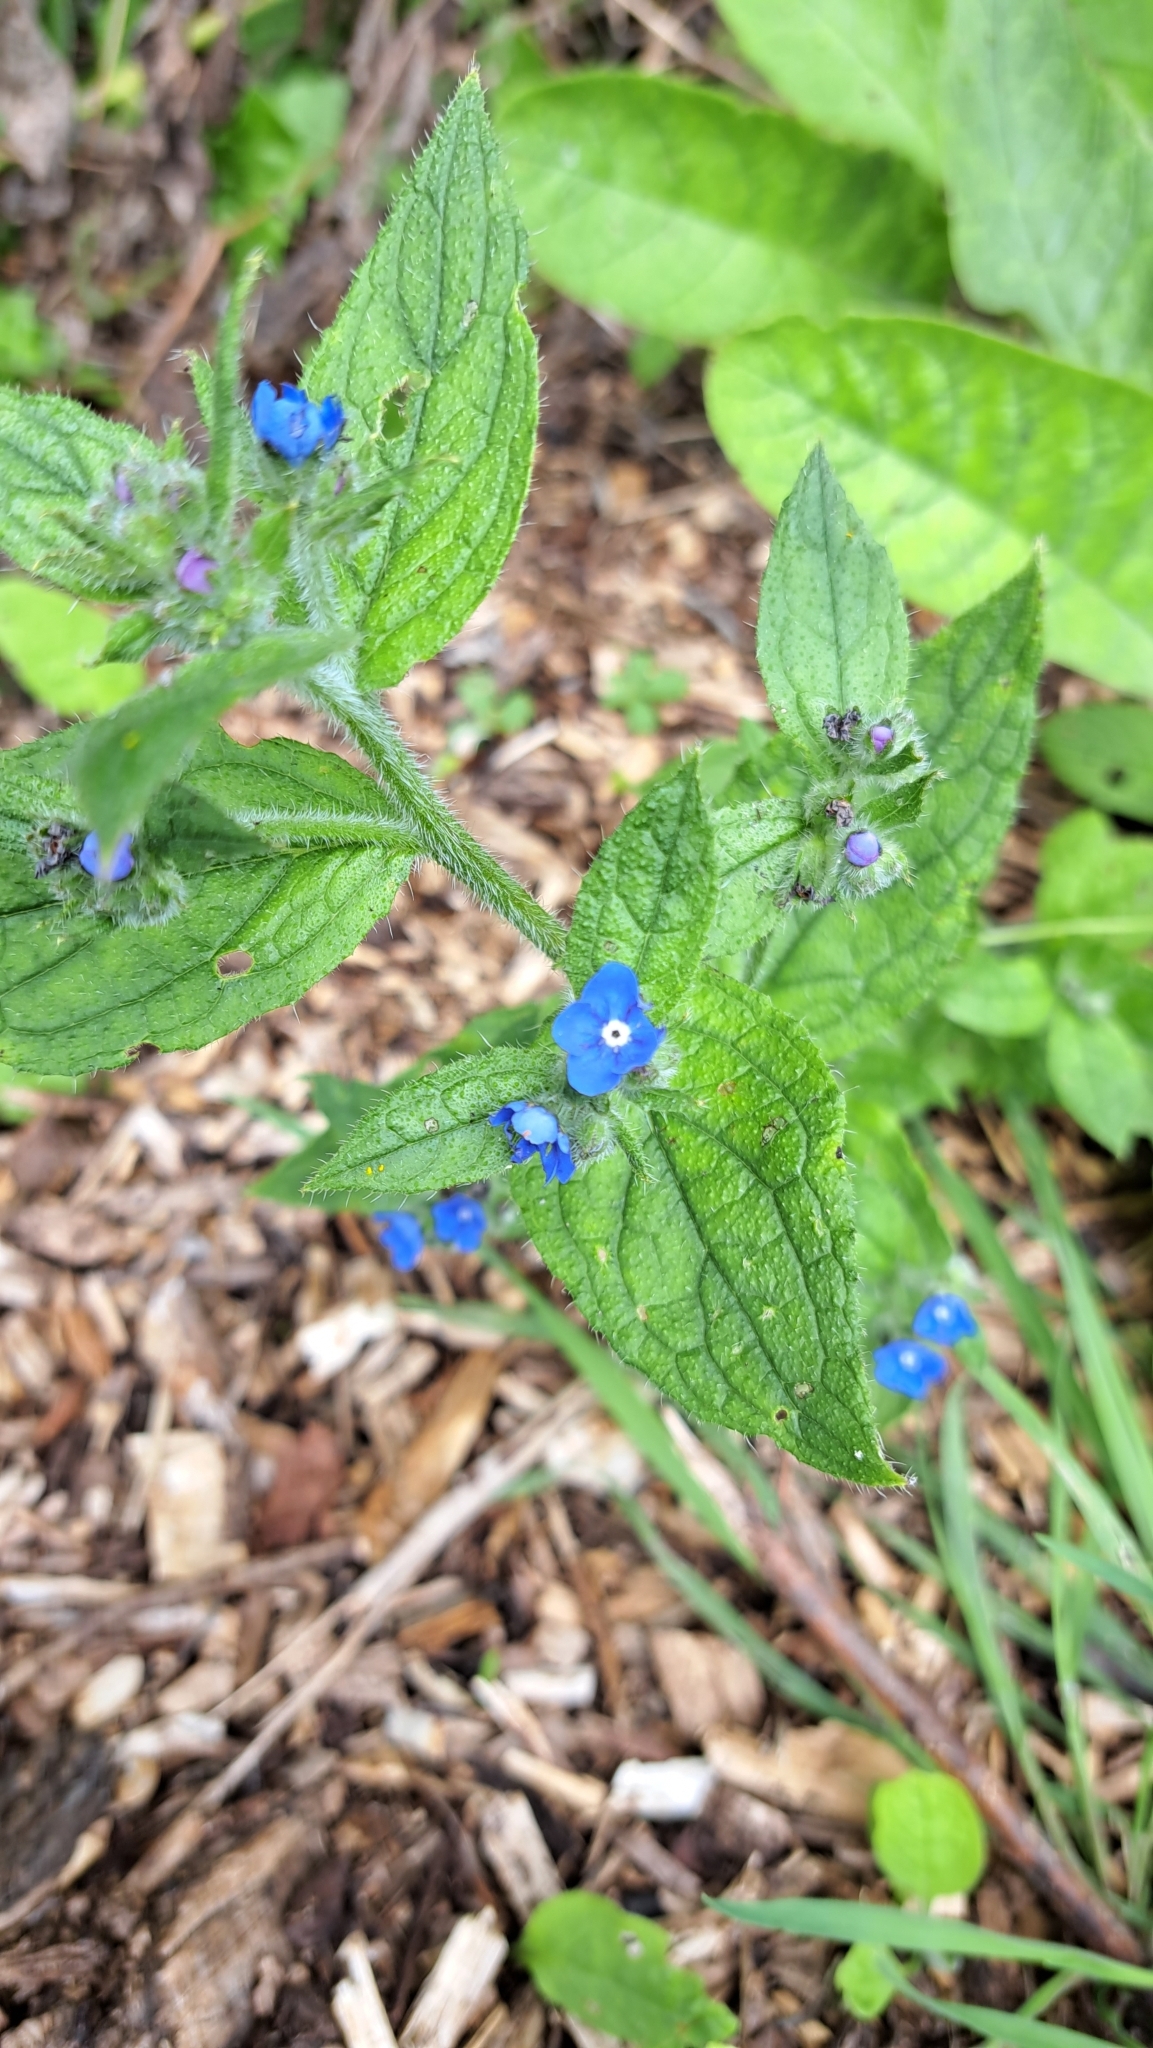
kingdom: Plantae
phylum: Tracheophyta
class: Magnoliopsida
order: Boraginales
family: Boraginaceae
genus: Pentaglottis
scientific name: Pentaglottis sempervirens
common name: Green alkanet
